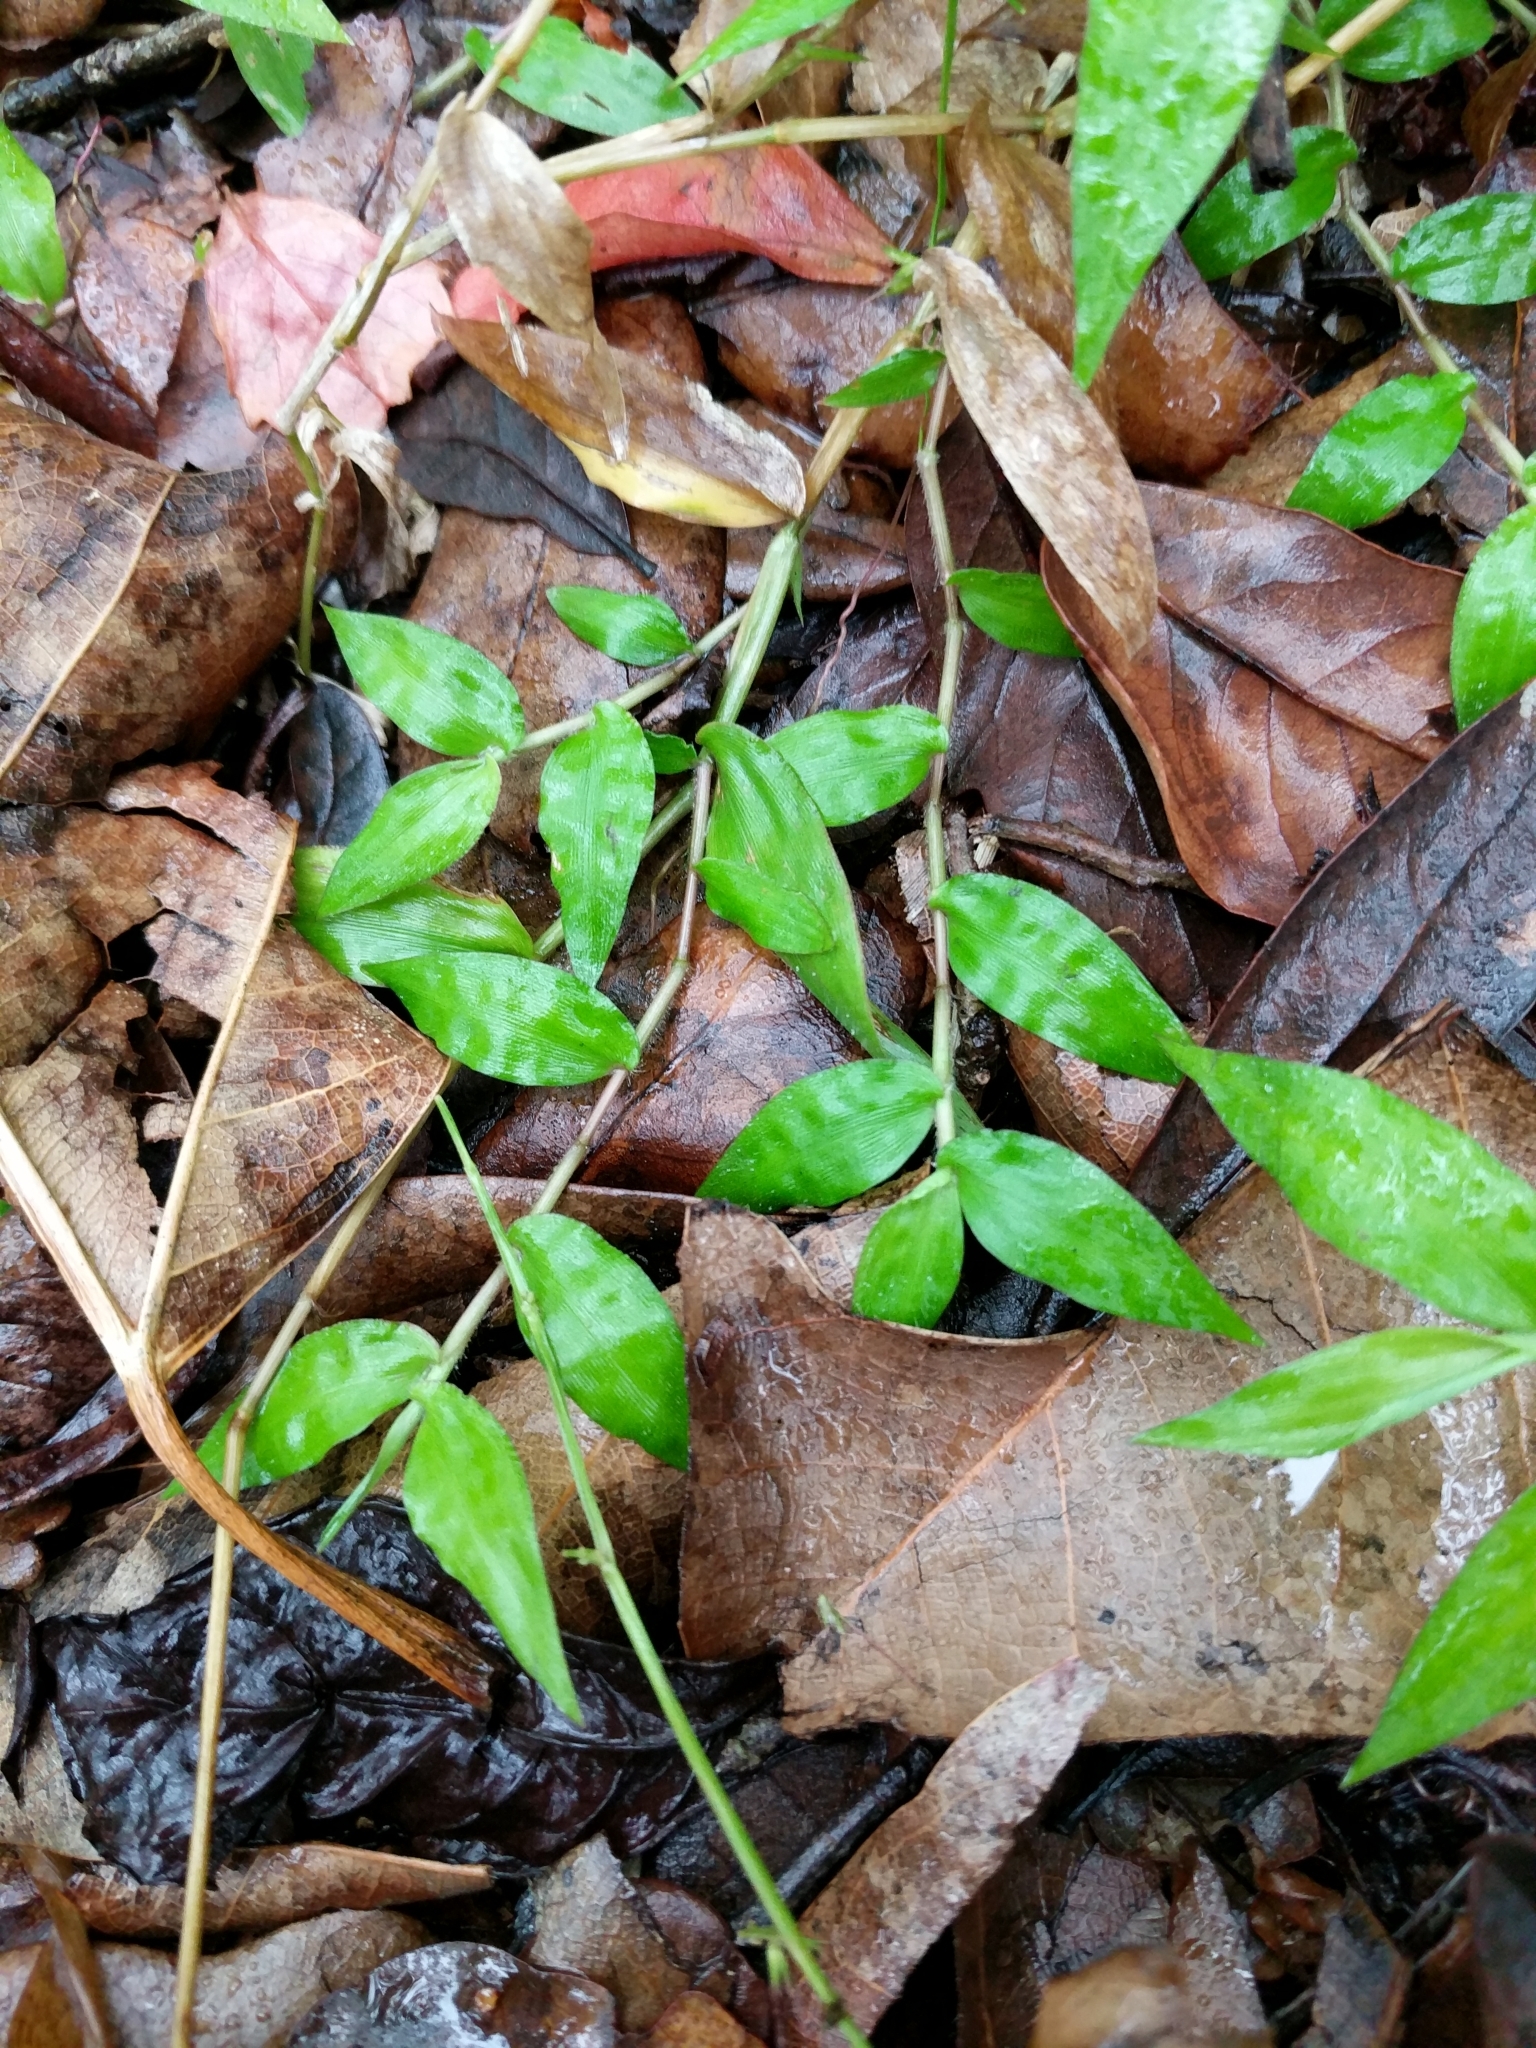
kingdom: Plantae
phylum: Tracheophyta
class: Liliopsida
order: Poales
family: Poaceae
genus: Oplismenus
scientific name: Oplismenus hirtellus
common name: Basketgrass
